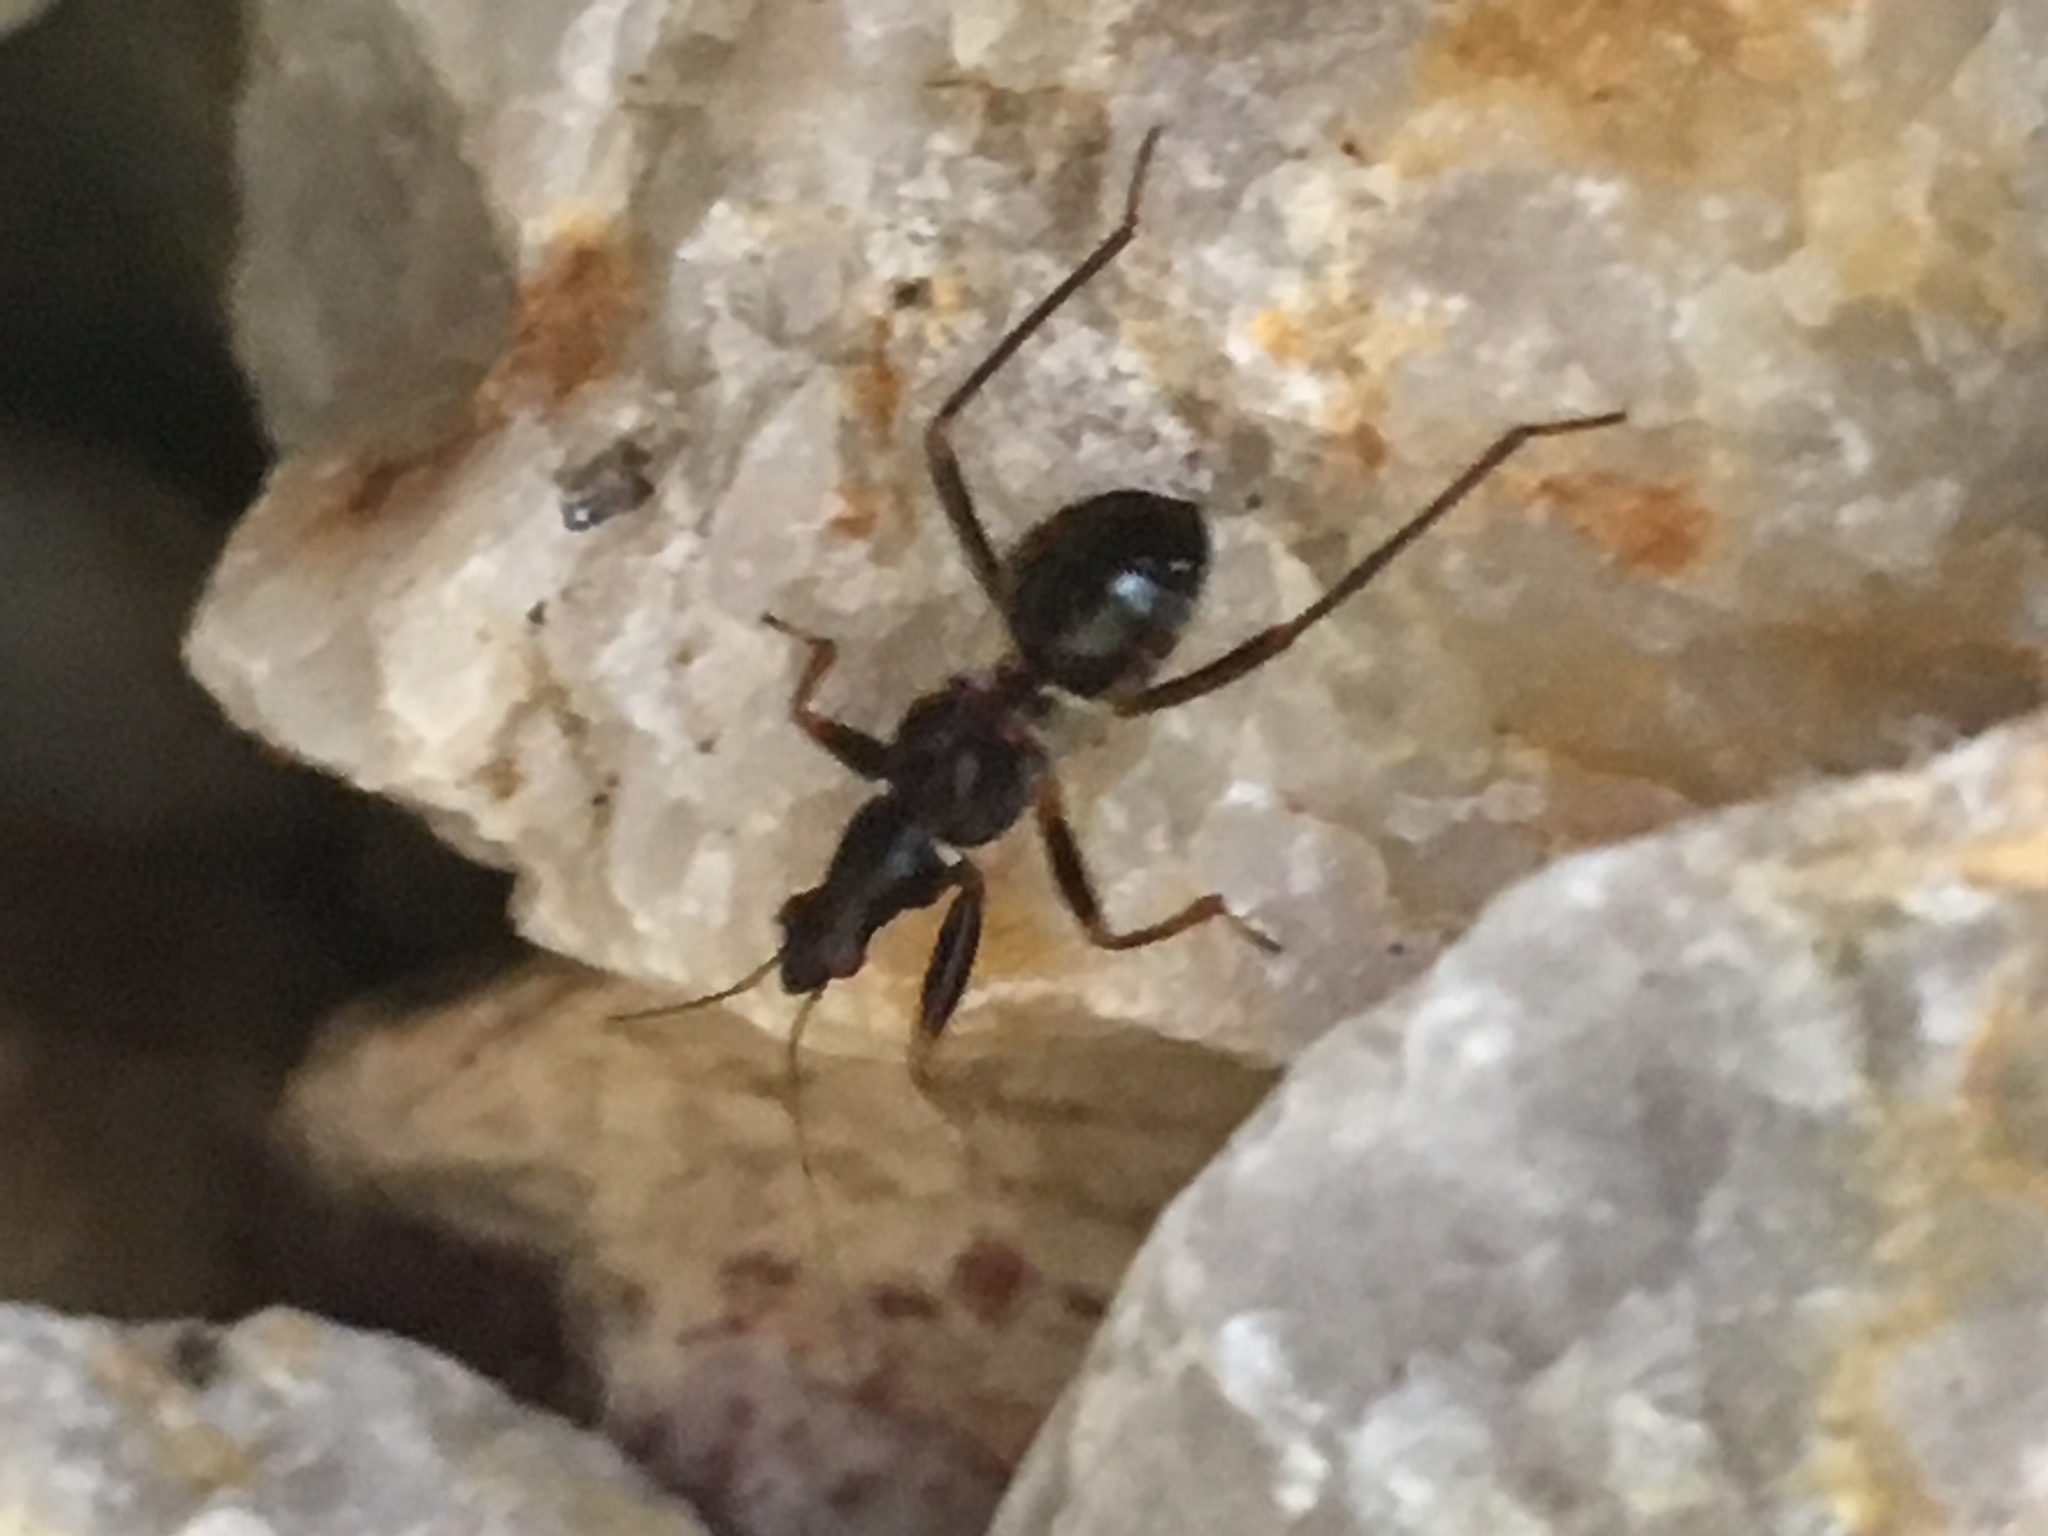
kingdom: Animalia
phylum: Arthropoda
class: Insecta
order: Hemiptera
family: Nabidae
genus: Himacerus
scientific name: Himacerus mirmicoides
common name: Ant damsel bug
